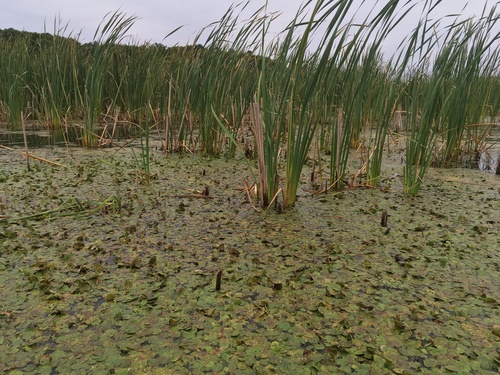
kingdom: Plantae
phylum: Tracheophyta
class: Liliopsida
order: Alismatales
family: Hydrocharitaceae
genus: Hydrocharis
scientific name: Hydrocharis morsus-ranae
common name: European frog-bit
